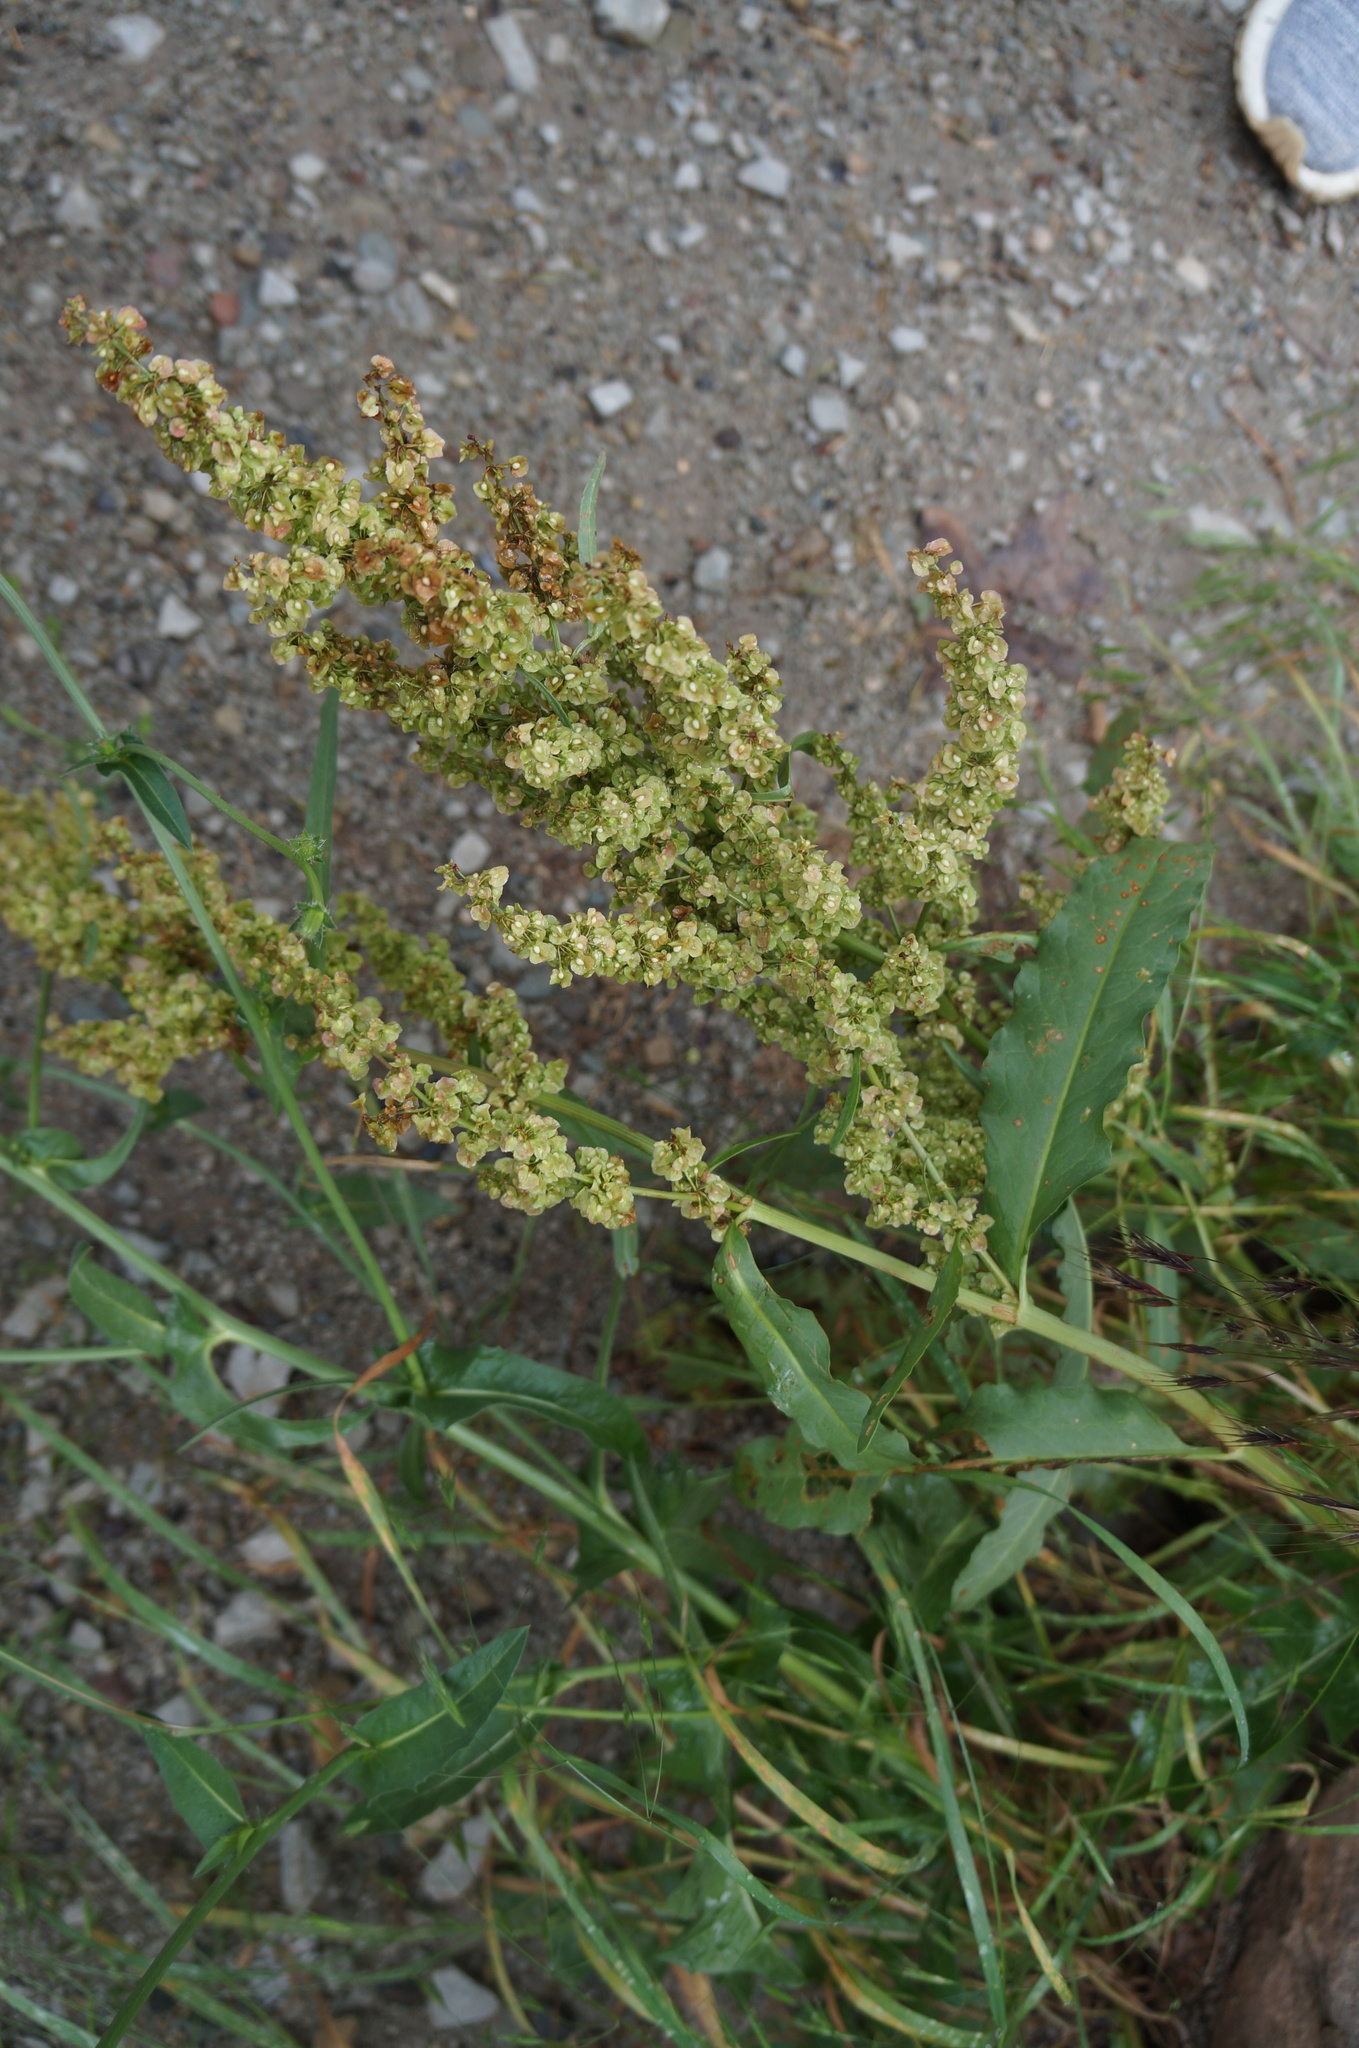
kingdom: Plantae
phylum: Tracheophyta
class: Magnoliopsida
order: Caryophyllales
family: Polygonaceae
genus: Rumex
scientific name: Rumex crispus
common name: Curled dock
